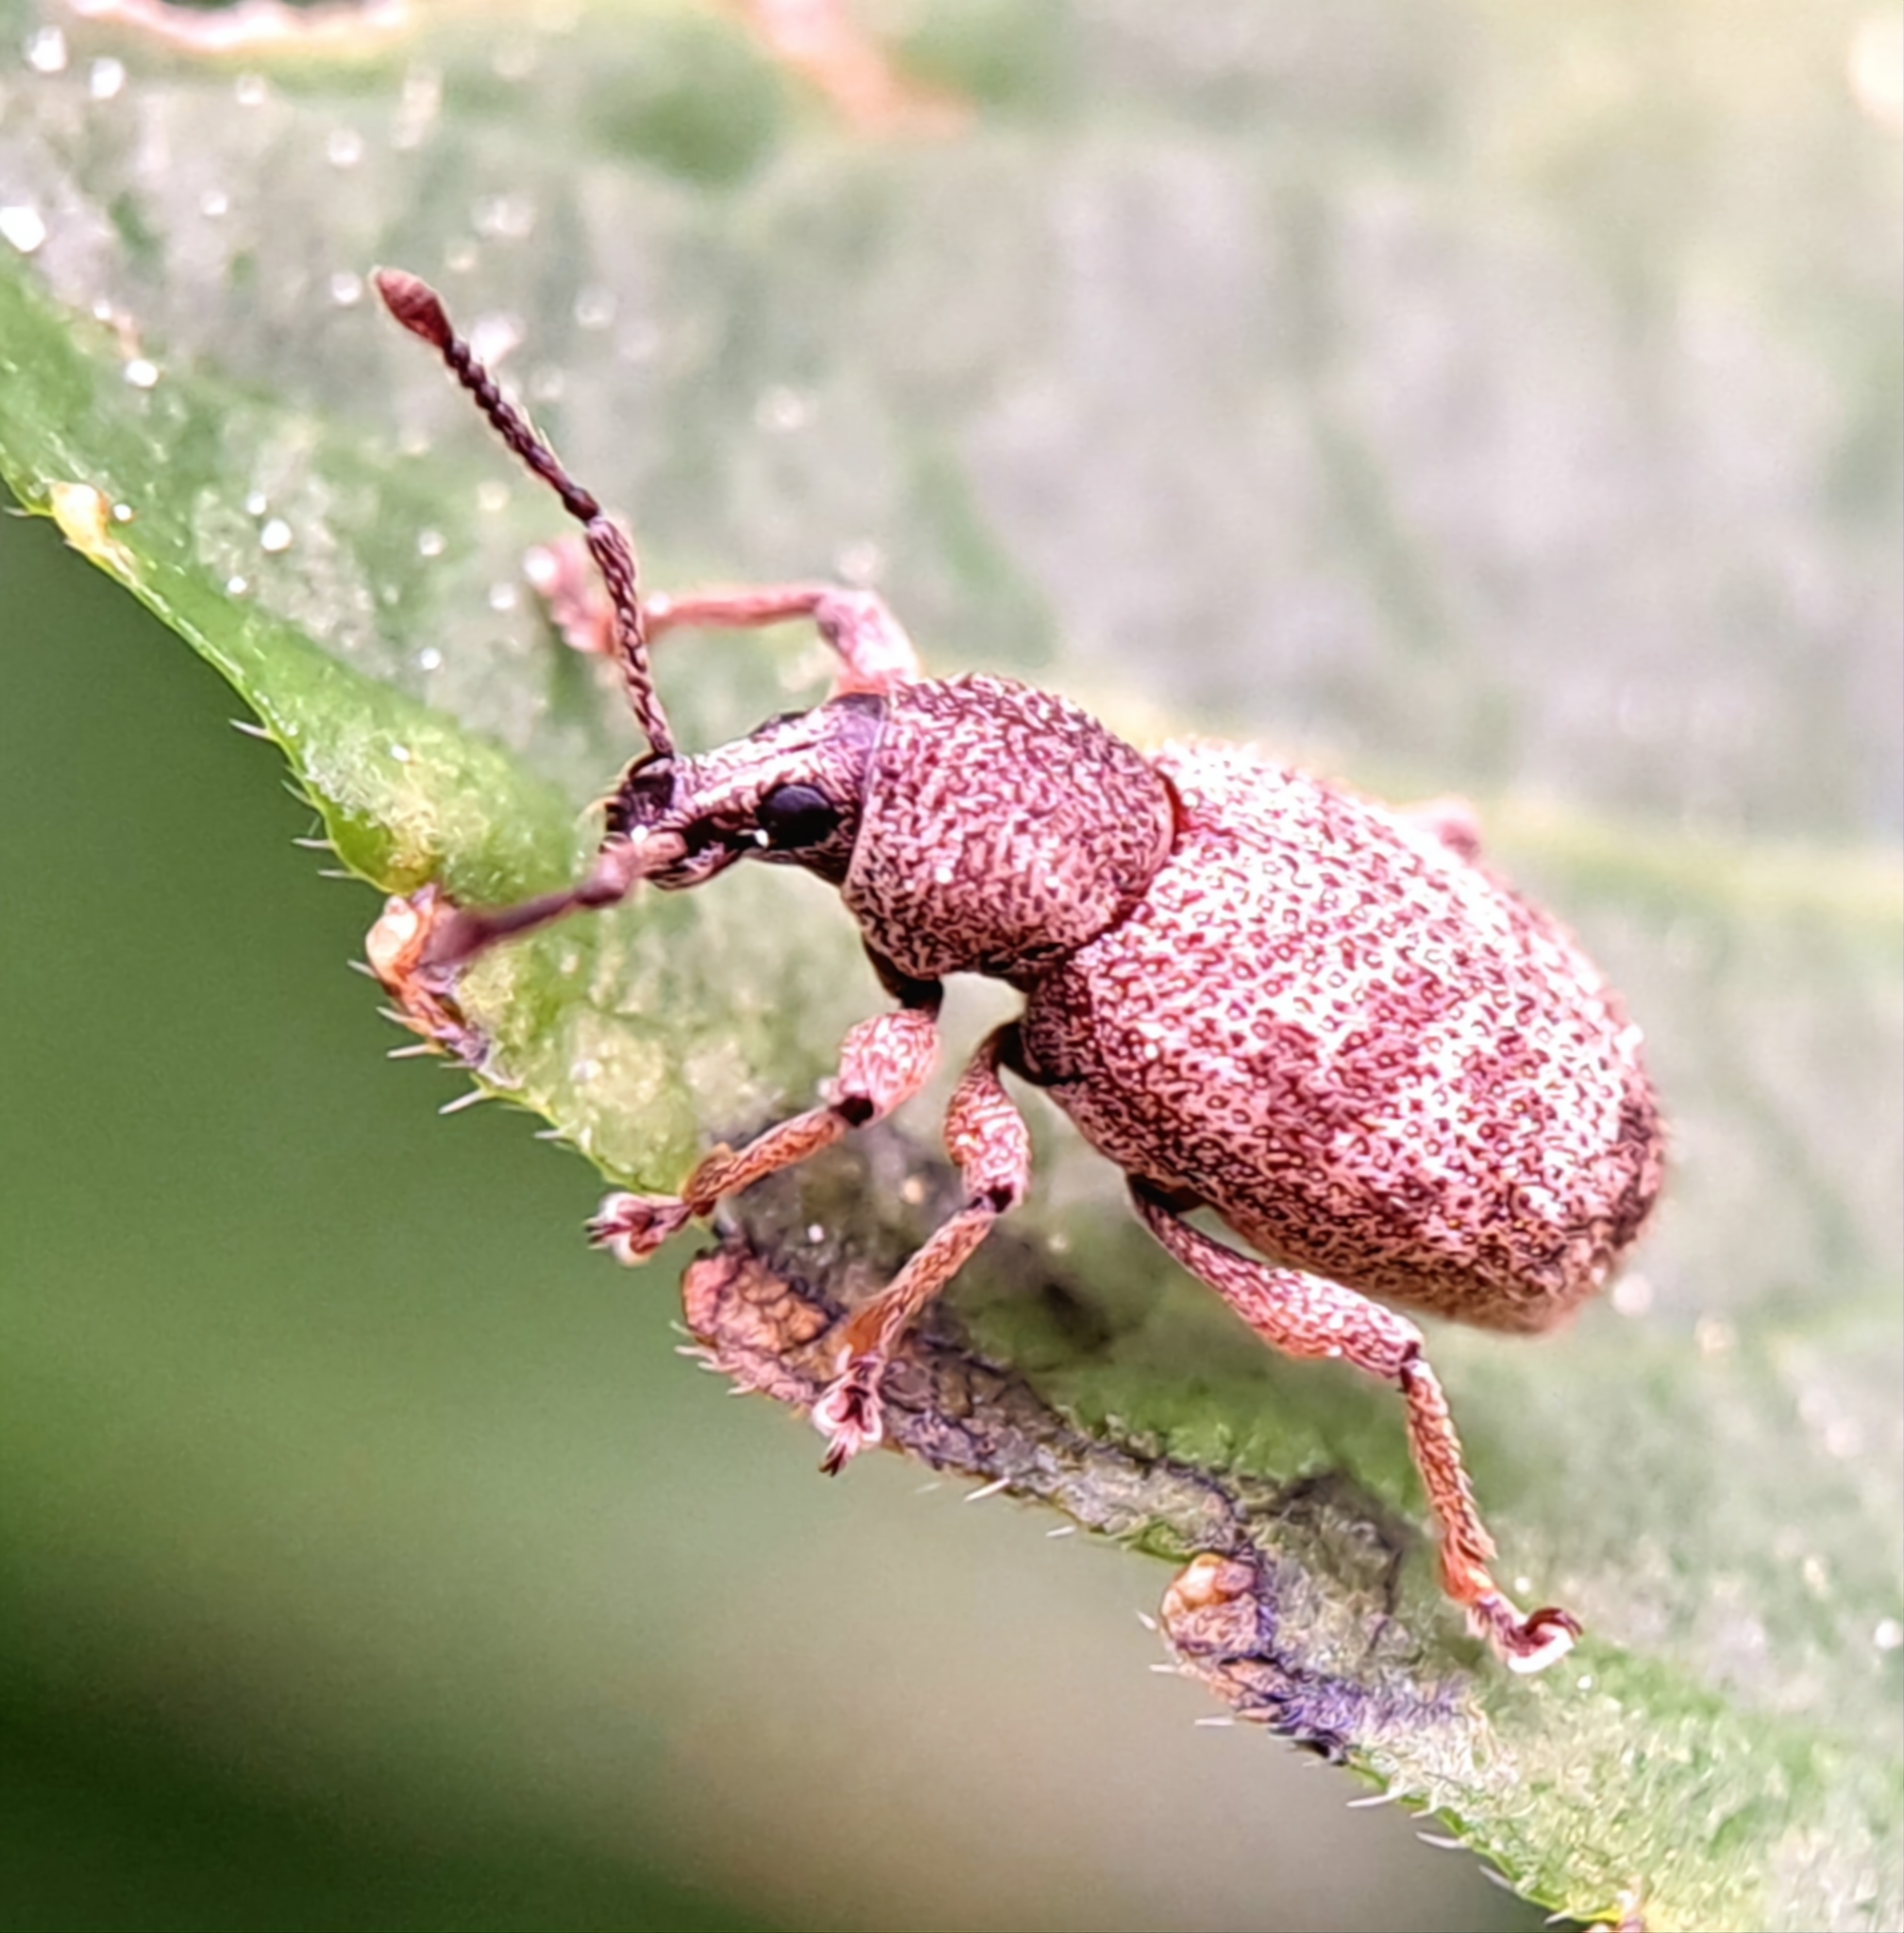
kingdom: Animalia
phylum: Arthropoda
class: Insecta
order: Coleoptera
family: Curculionidae
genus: Otiorhynchus
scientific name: Otiorhynchus singularis
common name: Clay-coloured weevil
